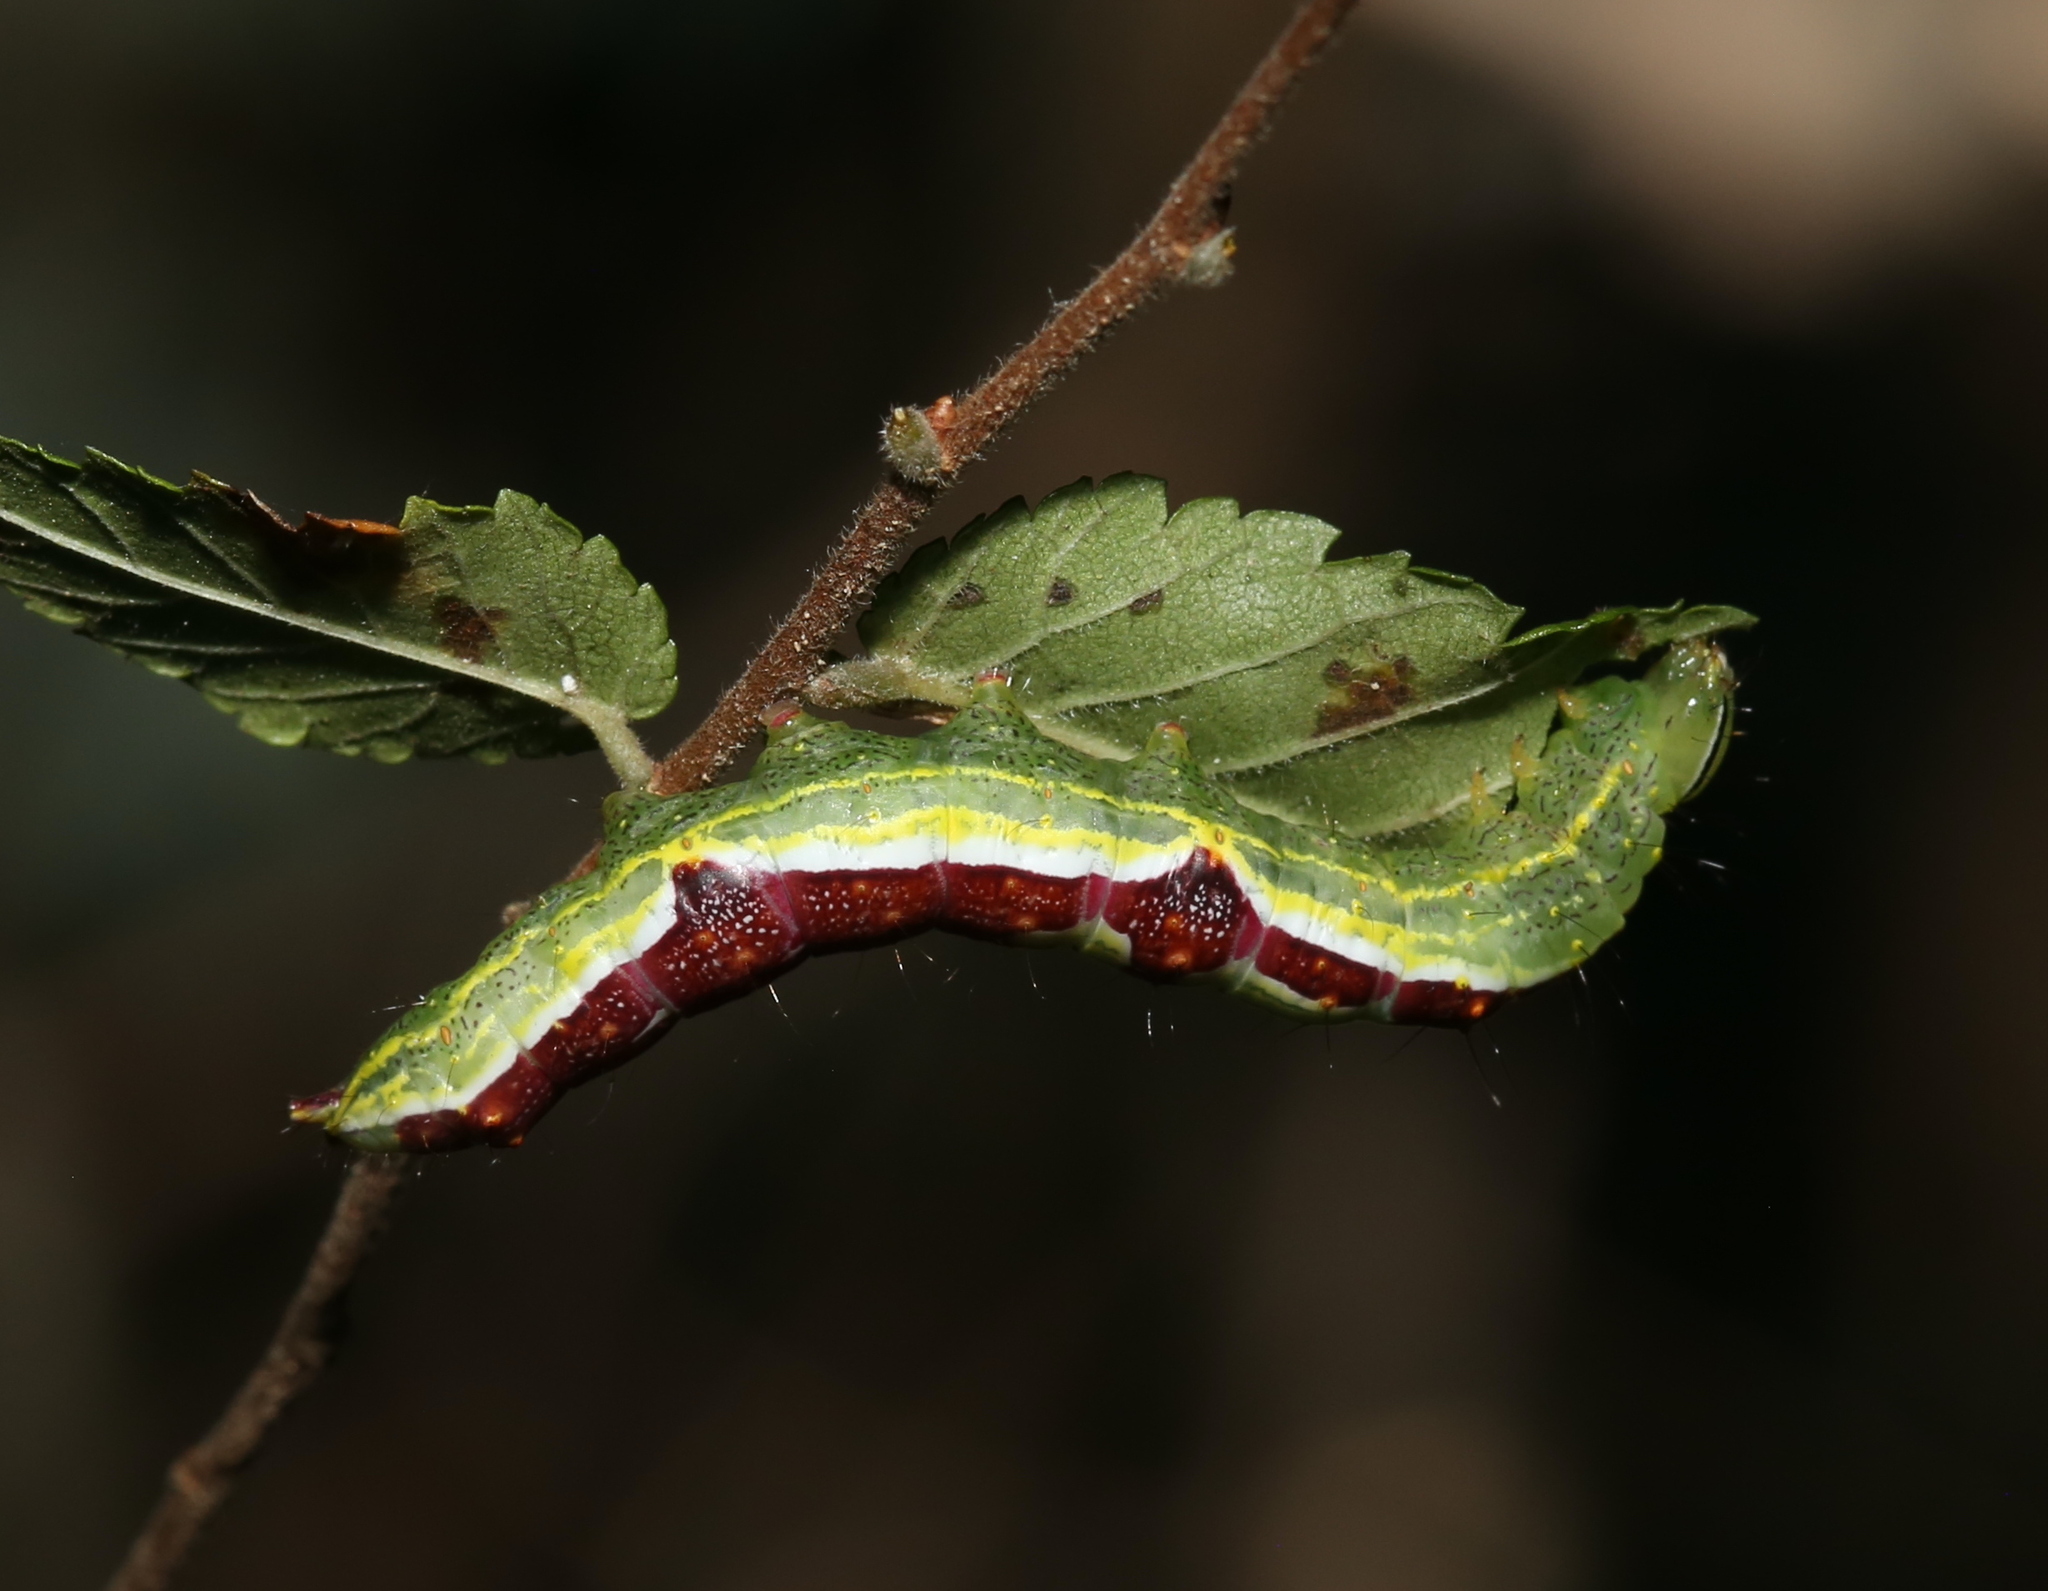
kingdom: Animalia
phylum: Arthropoda
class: Insecta
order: Lepidoptera
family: Notodontidae
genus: Lochmaeus
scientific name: Lochmaeus bilineata
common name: Double-lined prominent
